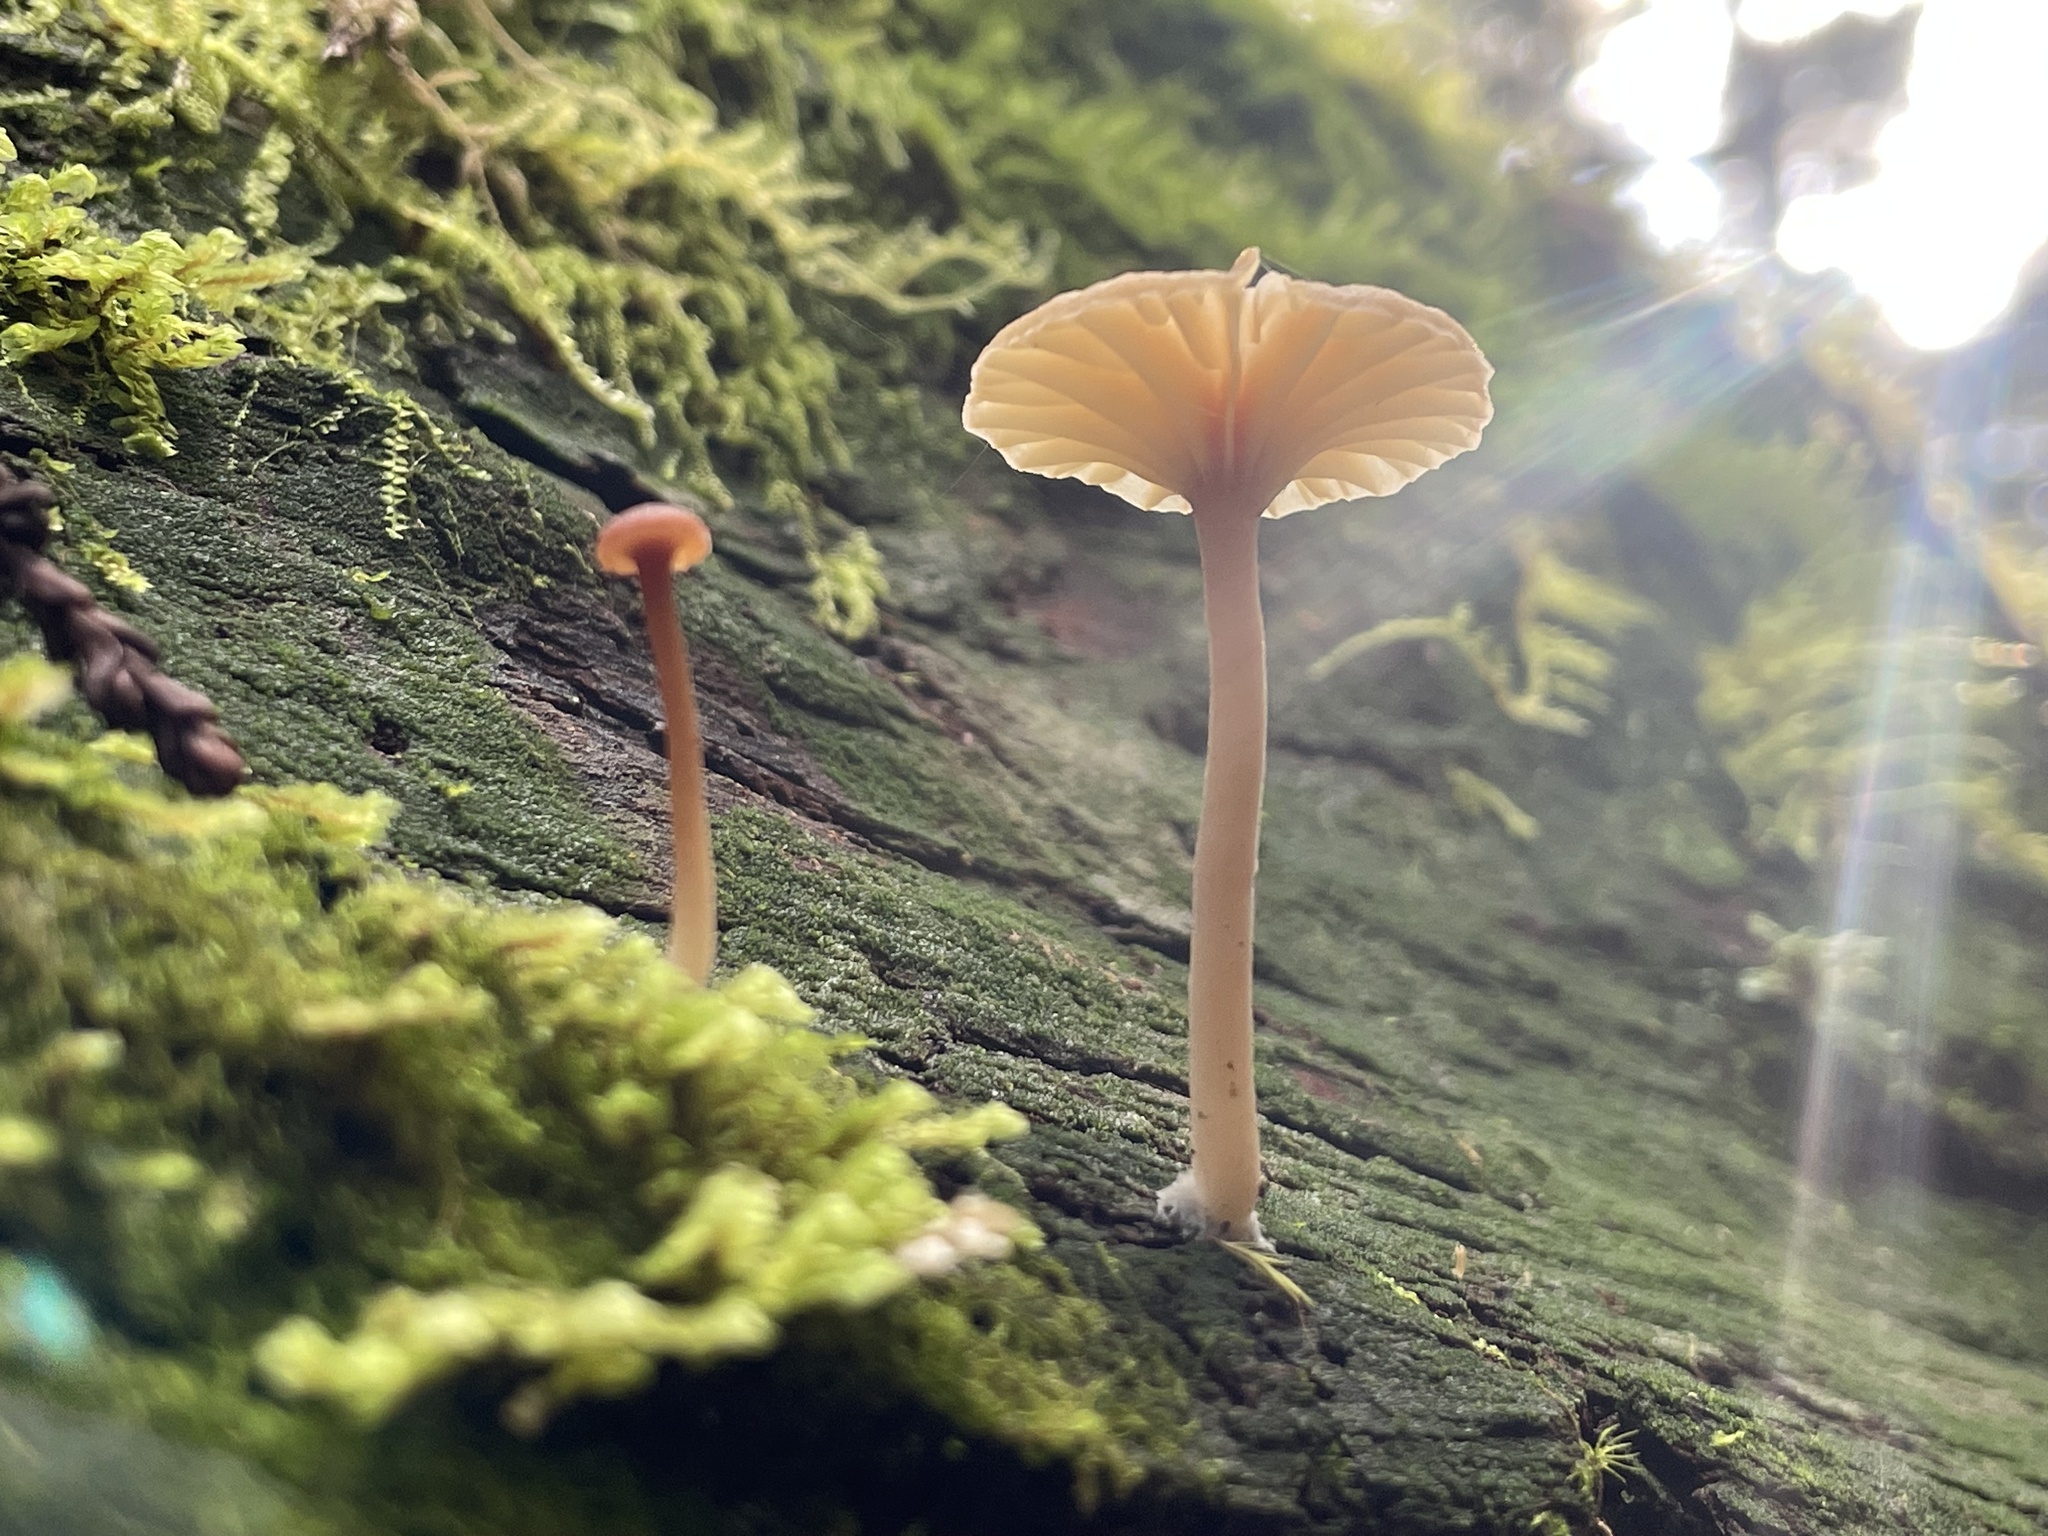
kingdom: Fungi
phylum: Basidiomycota
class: Agaricomycetes
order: Agaricales
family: Hygrophoraceae
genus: Lichenomphalia
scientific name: Lichenomphalia
